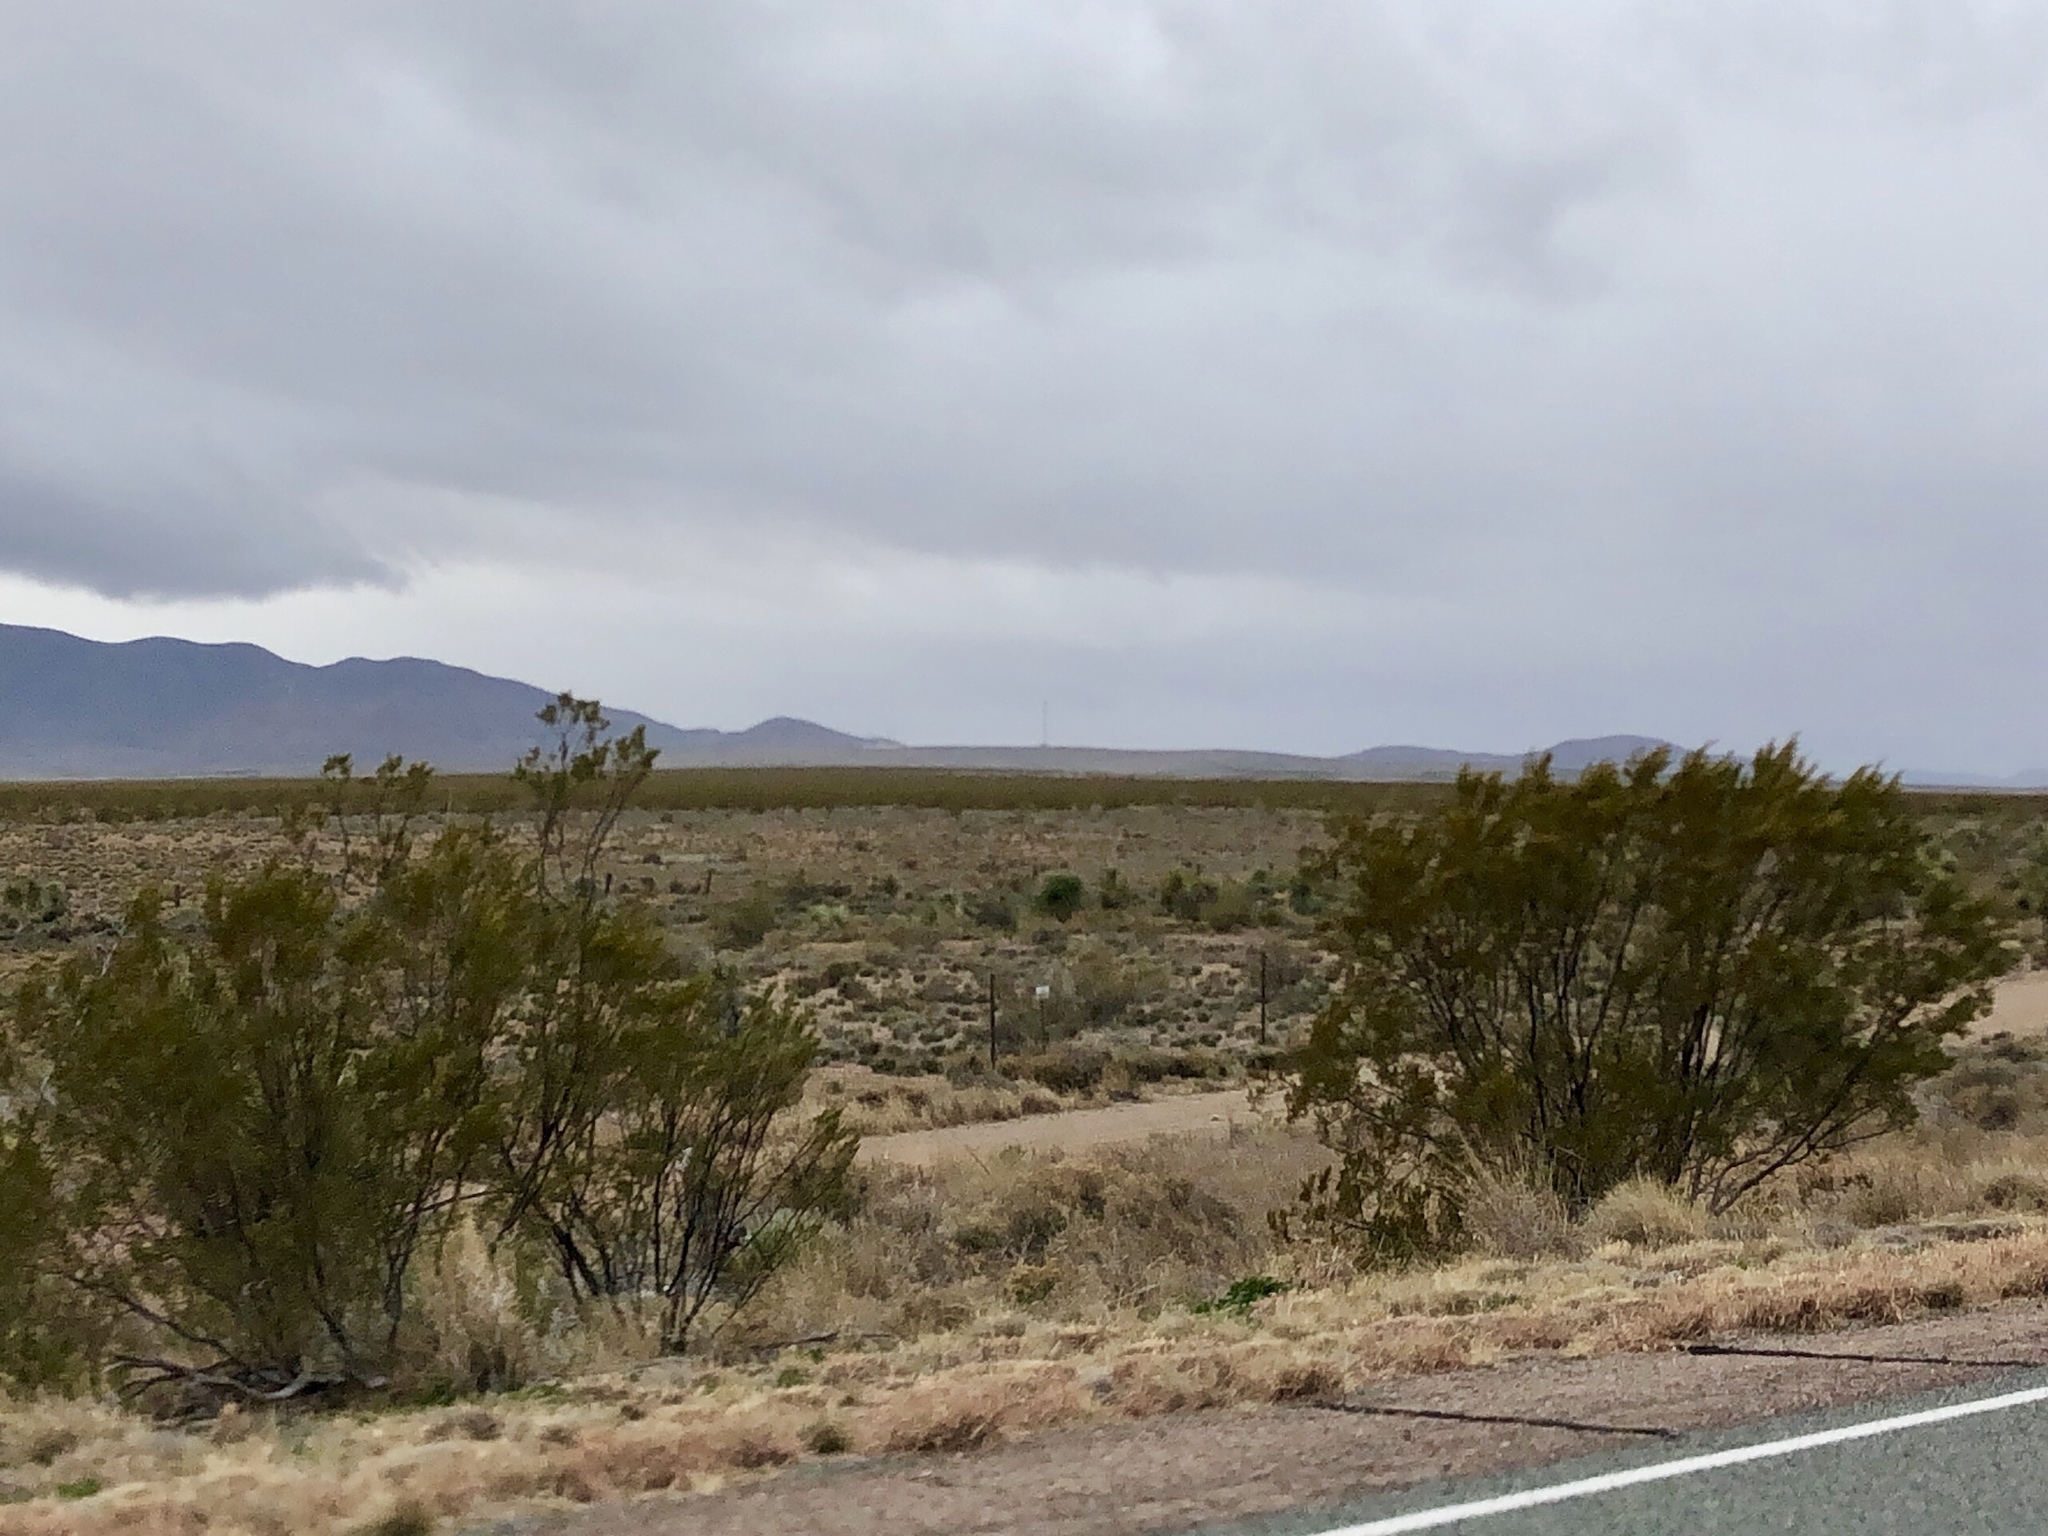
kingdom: Plantae
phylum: Tracheophyta
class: Magnoliopsida
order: Zygophyllales
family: Zygophyllaceae
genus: Larrea
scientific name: Larrea tridentata
